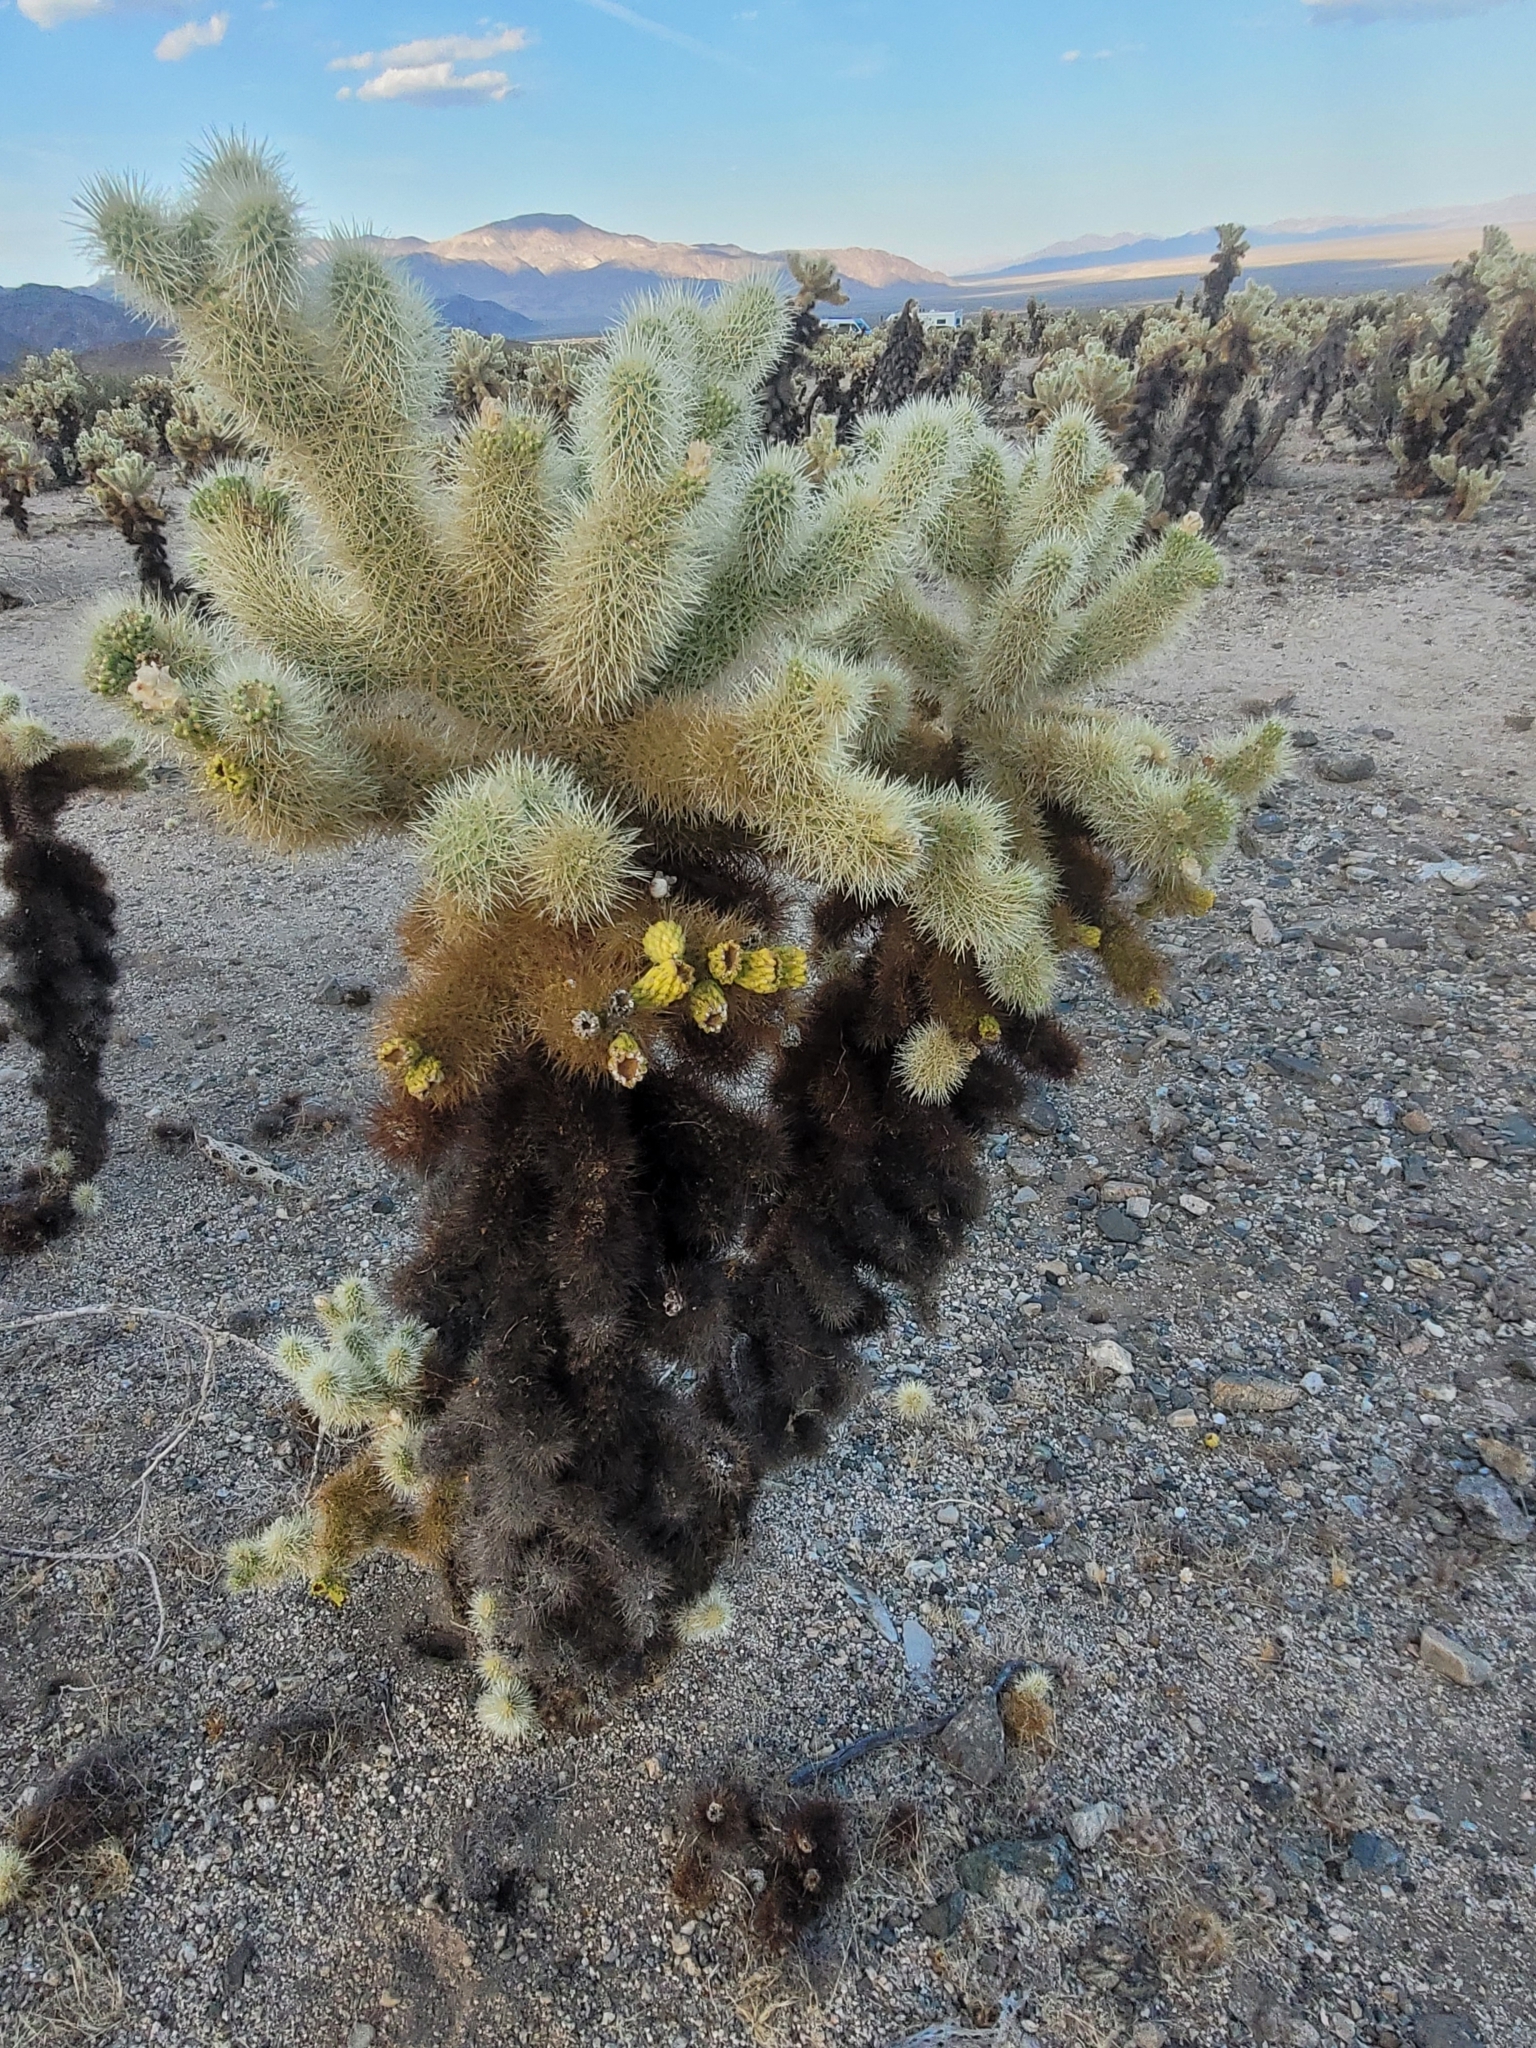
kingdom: Plantae
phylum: Tracheophyta
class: Magnoliopsida
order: Caryophyllales
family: Cactaceae
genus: Cylindropuntia
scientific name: Cylindropuntia fosbergii
